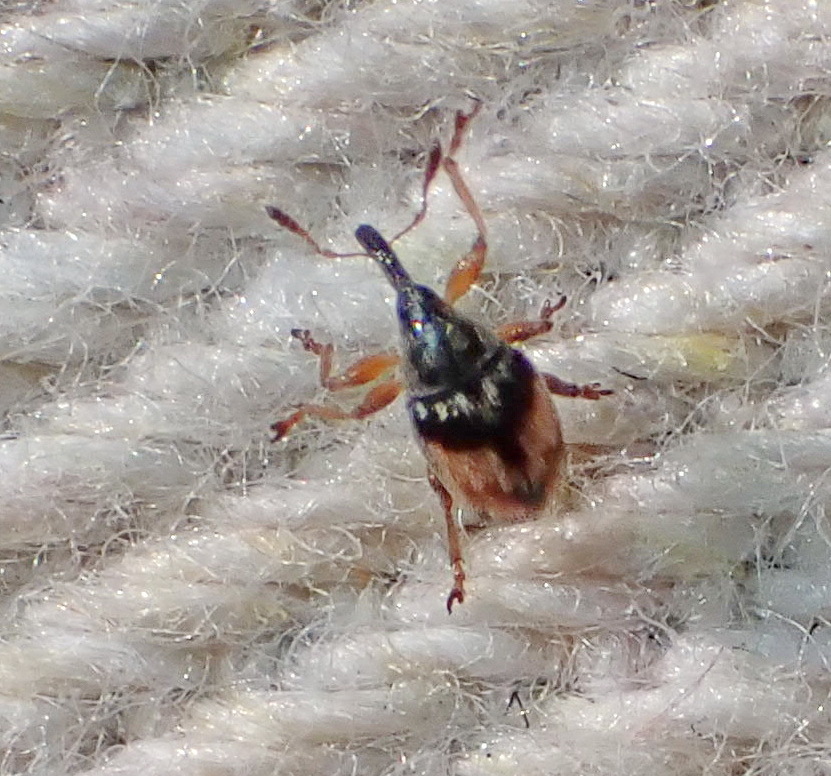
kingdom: Animalia
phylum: Arthropoda
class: Insecta
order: Coleoptera
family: Brentidae
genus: Nanophyes
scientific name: Nanophyes marmoratus
